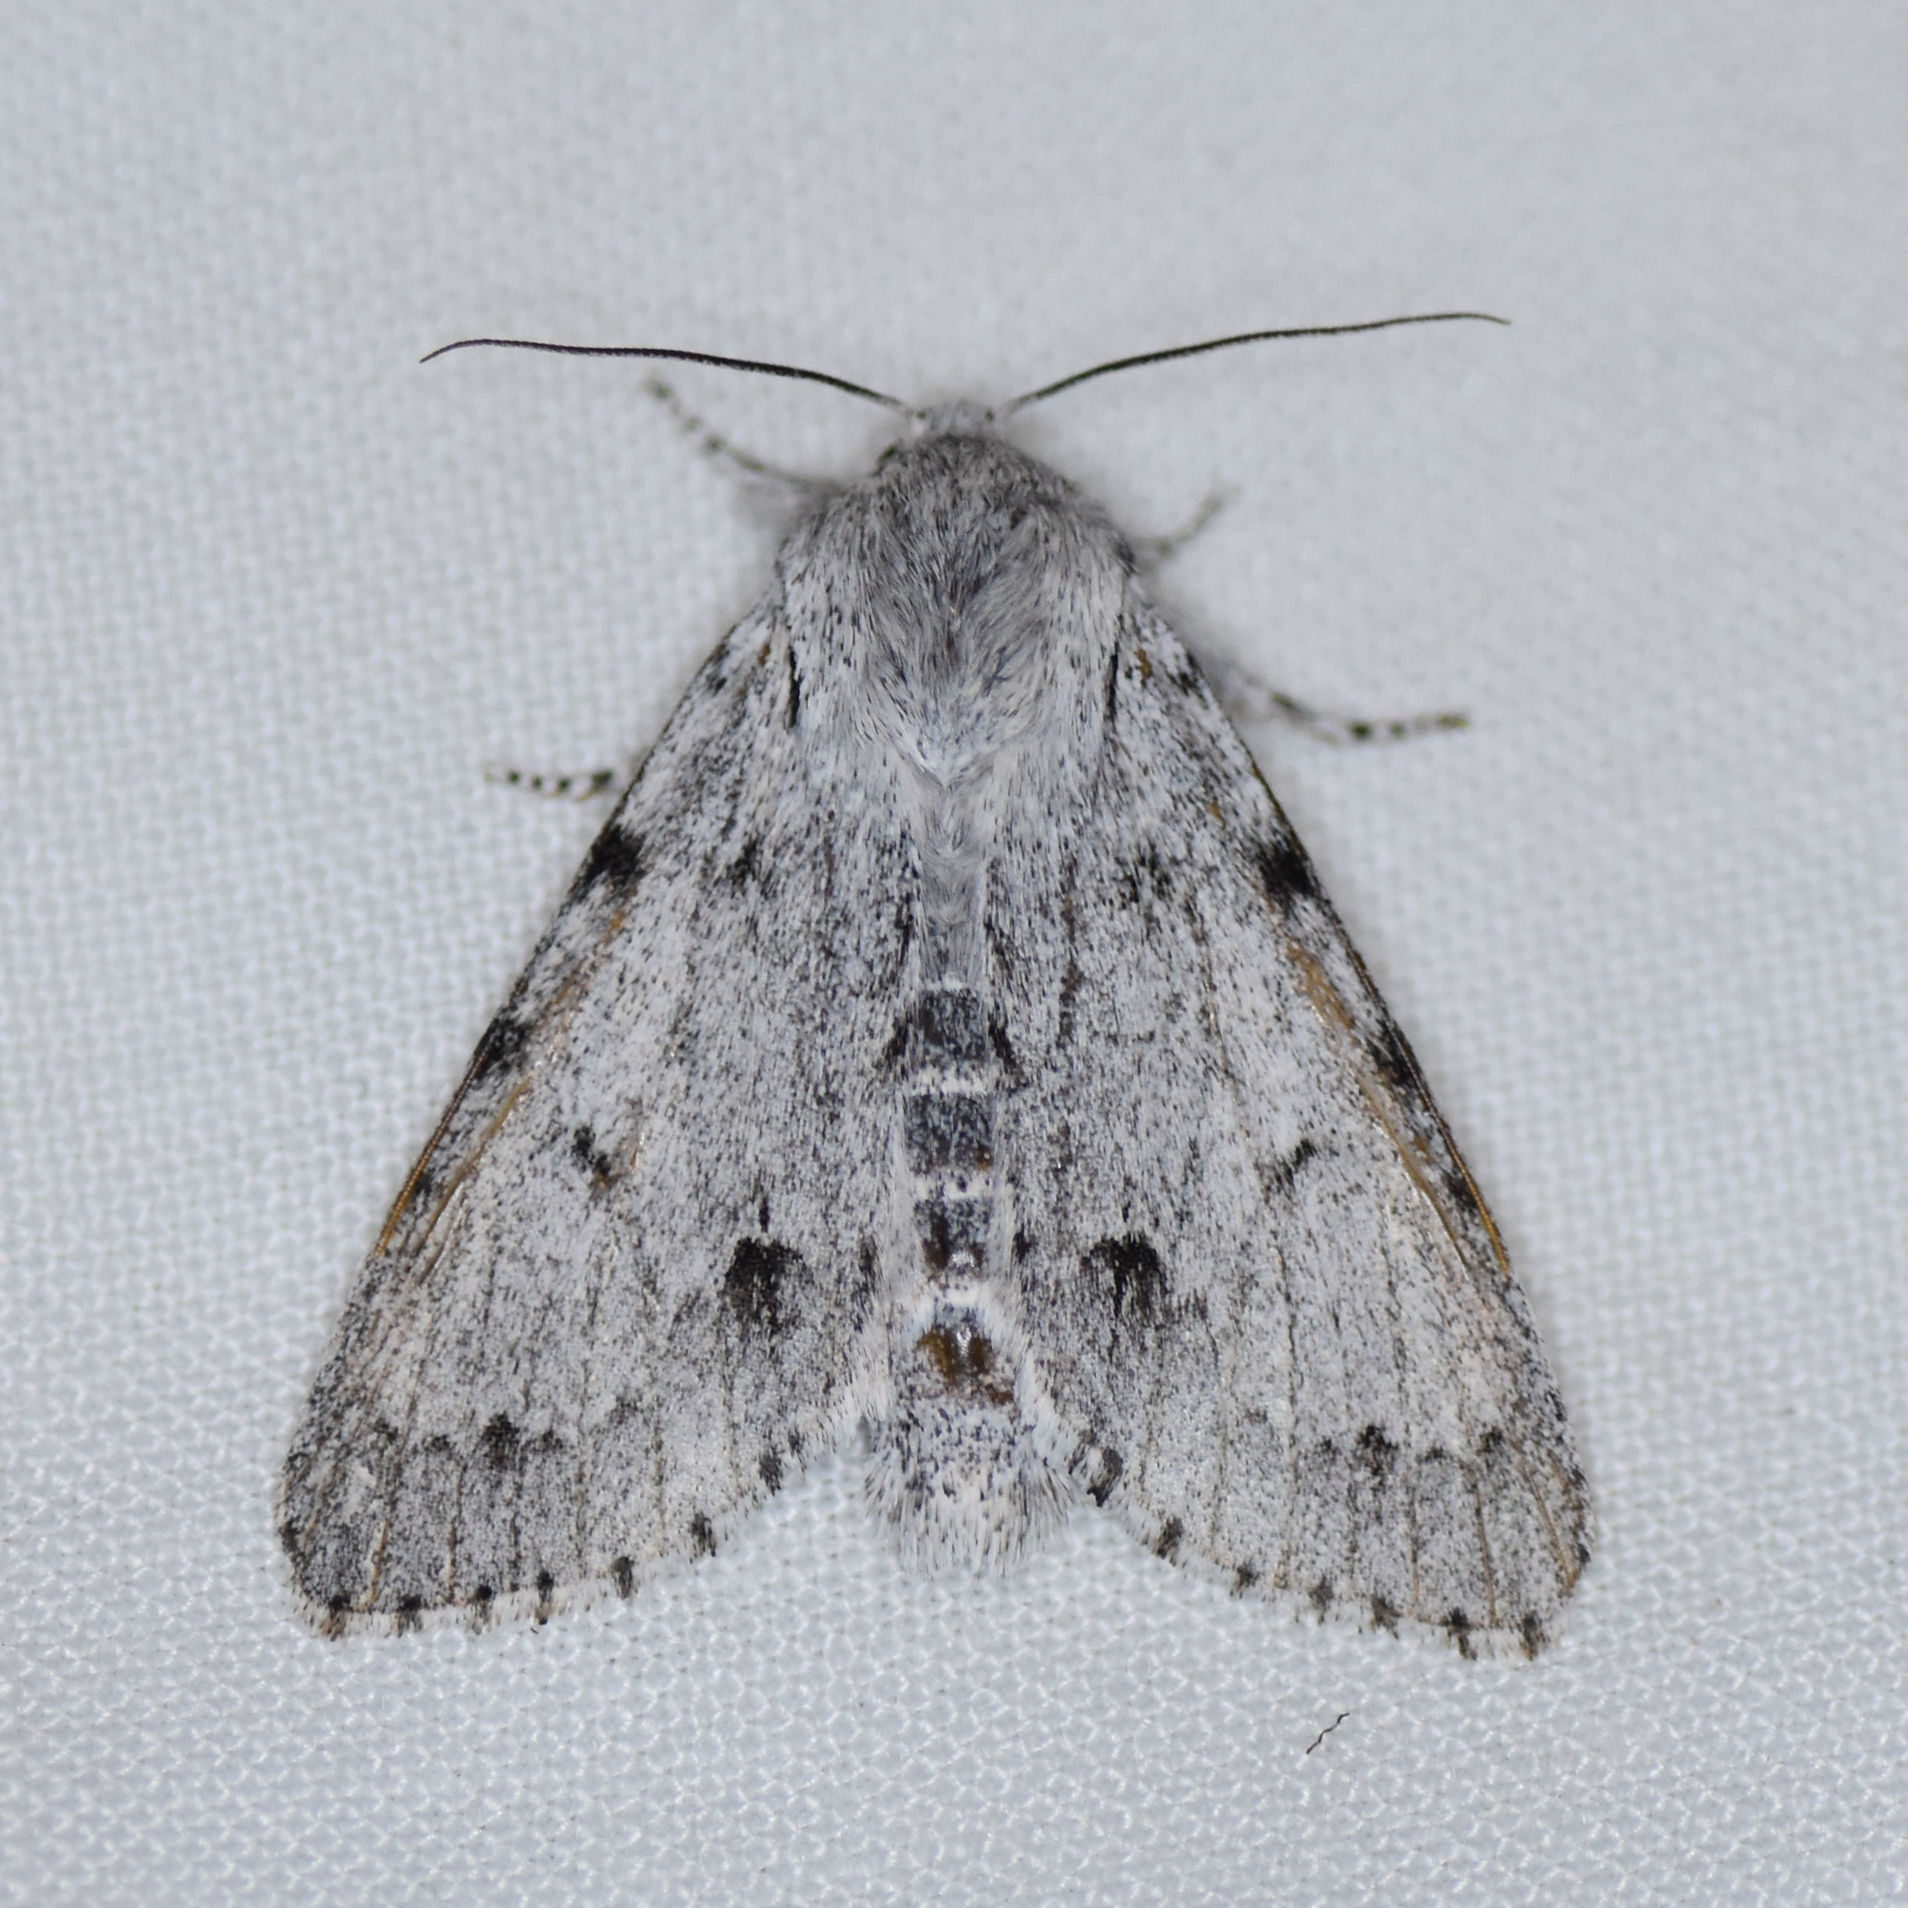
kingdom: Animalia
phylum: Arthropoda
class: Insecta
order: Lepidoptera
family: Noctuidae
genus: Acronicta
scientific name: Acronicta lepusculina
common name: Cottonwood dagger
